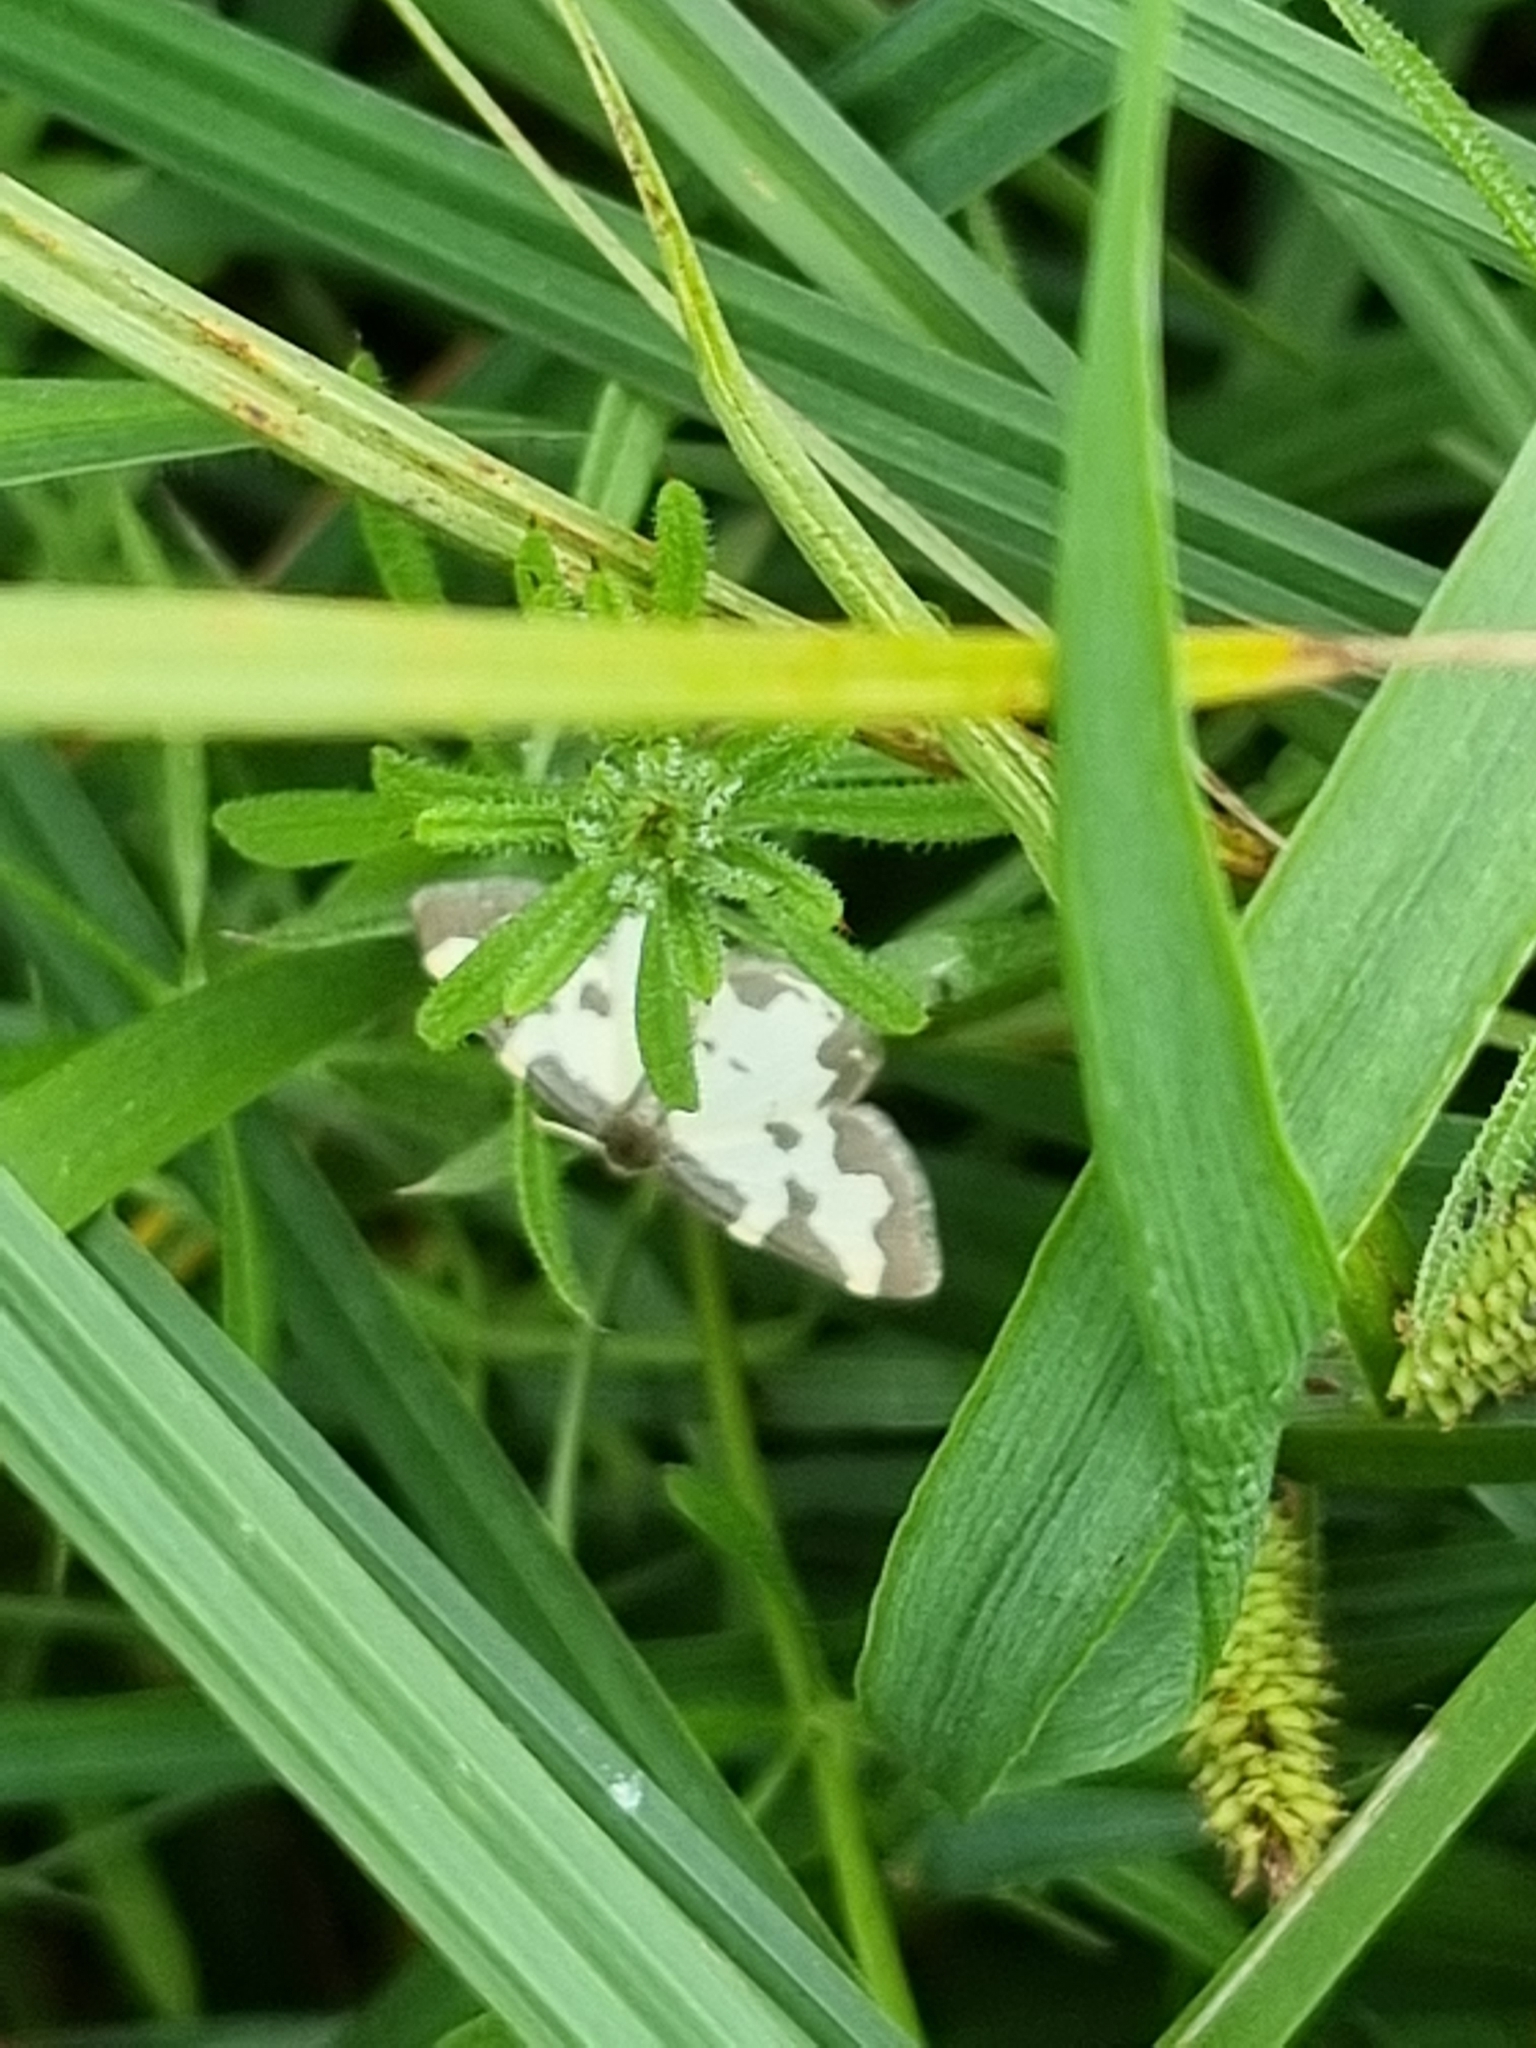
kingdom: Animalia
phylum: Arthropoda
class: Insecta
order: Lepidoptera
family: Geometridae
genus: Lomaspilis
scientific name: Lomaspilis marginata
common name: Clouded border
